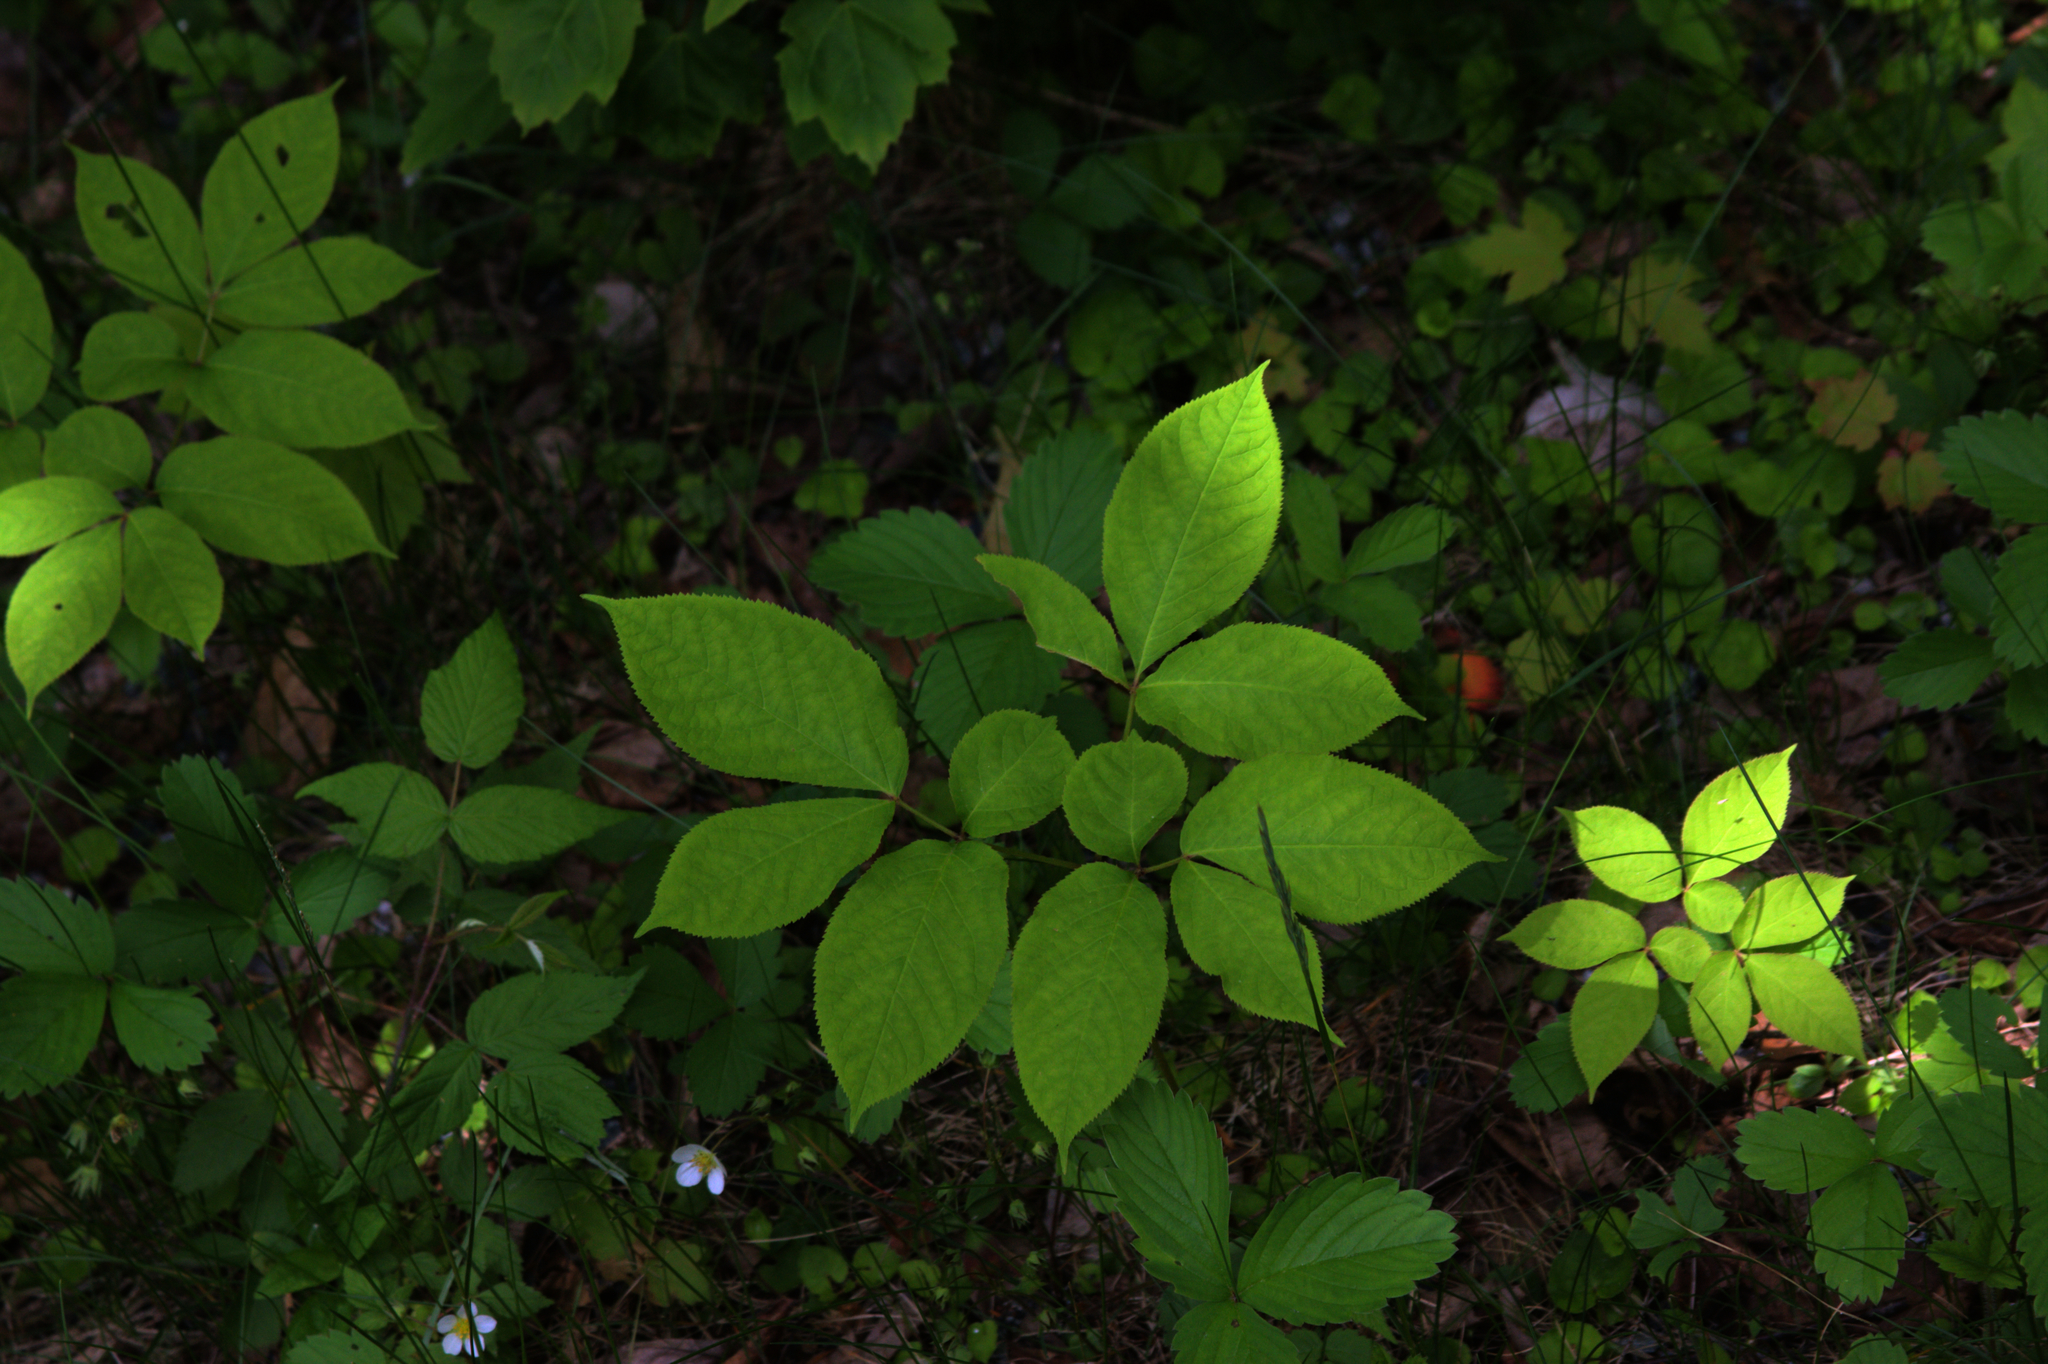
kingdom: Plantae
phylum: Tracheophyta
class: Magnoliopsida
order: Apiales
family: Araliaceae
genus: Aralia
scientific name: Aralia nudicaulis
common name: Wild sarsaparilla
